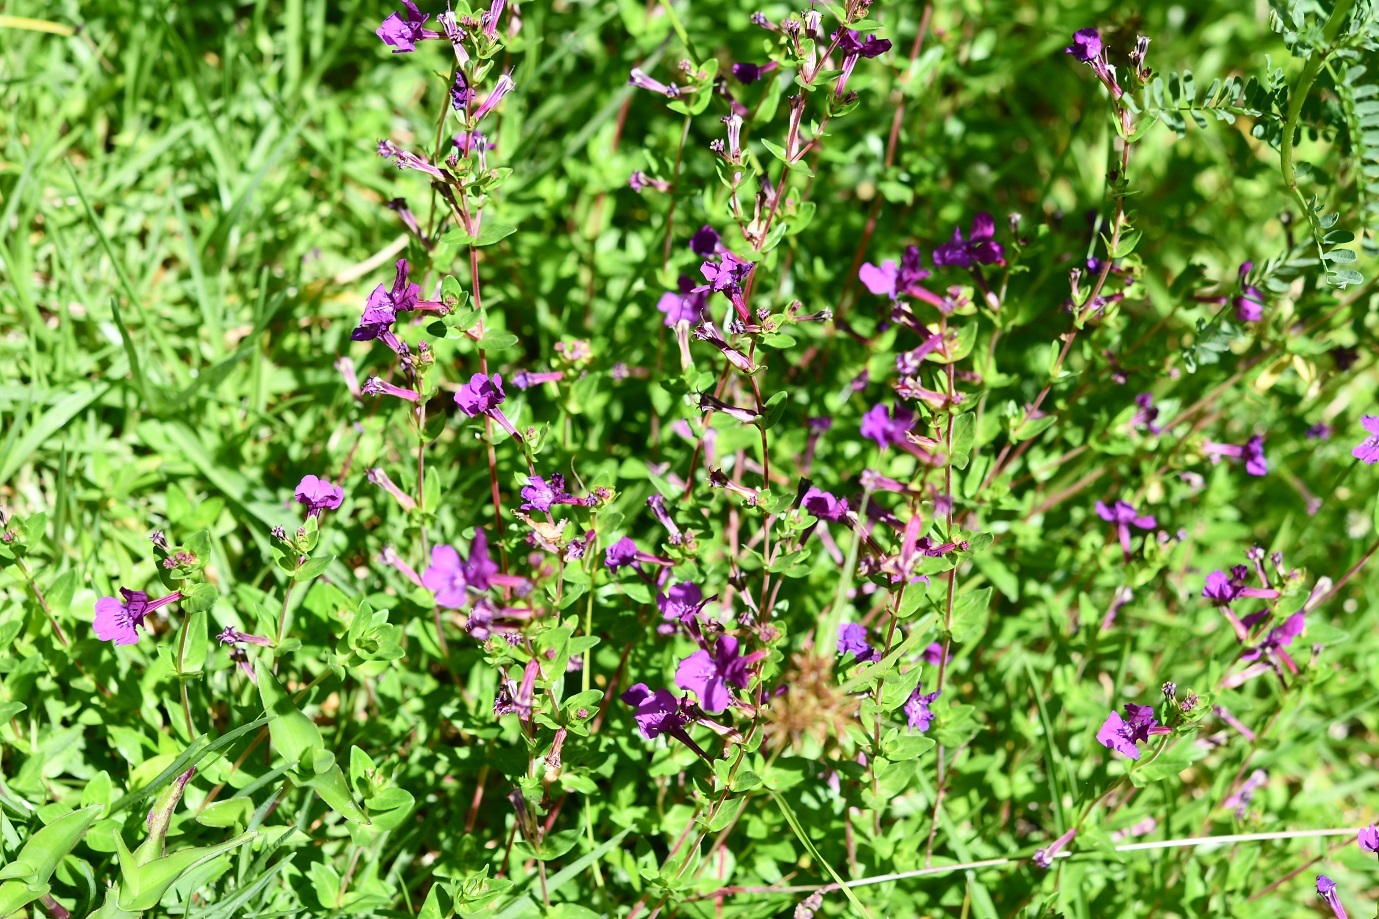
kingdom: Plantae
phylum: Tracheophyta
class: Magnoliopsida
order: Myrtales
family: Lythraceae
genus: Cuphea
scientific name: Cuphea aequipetala
